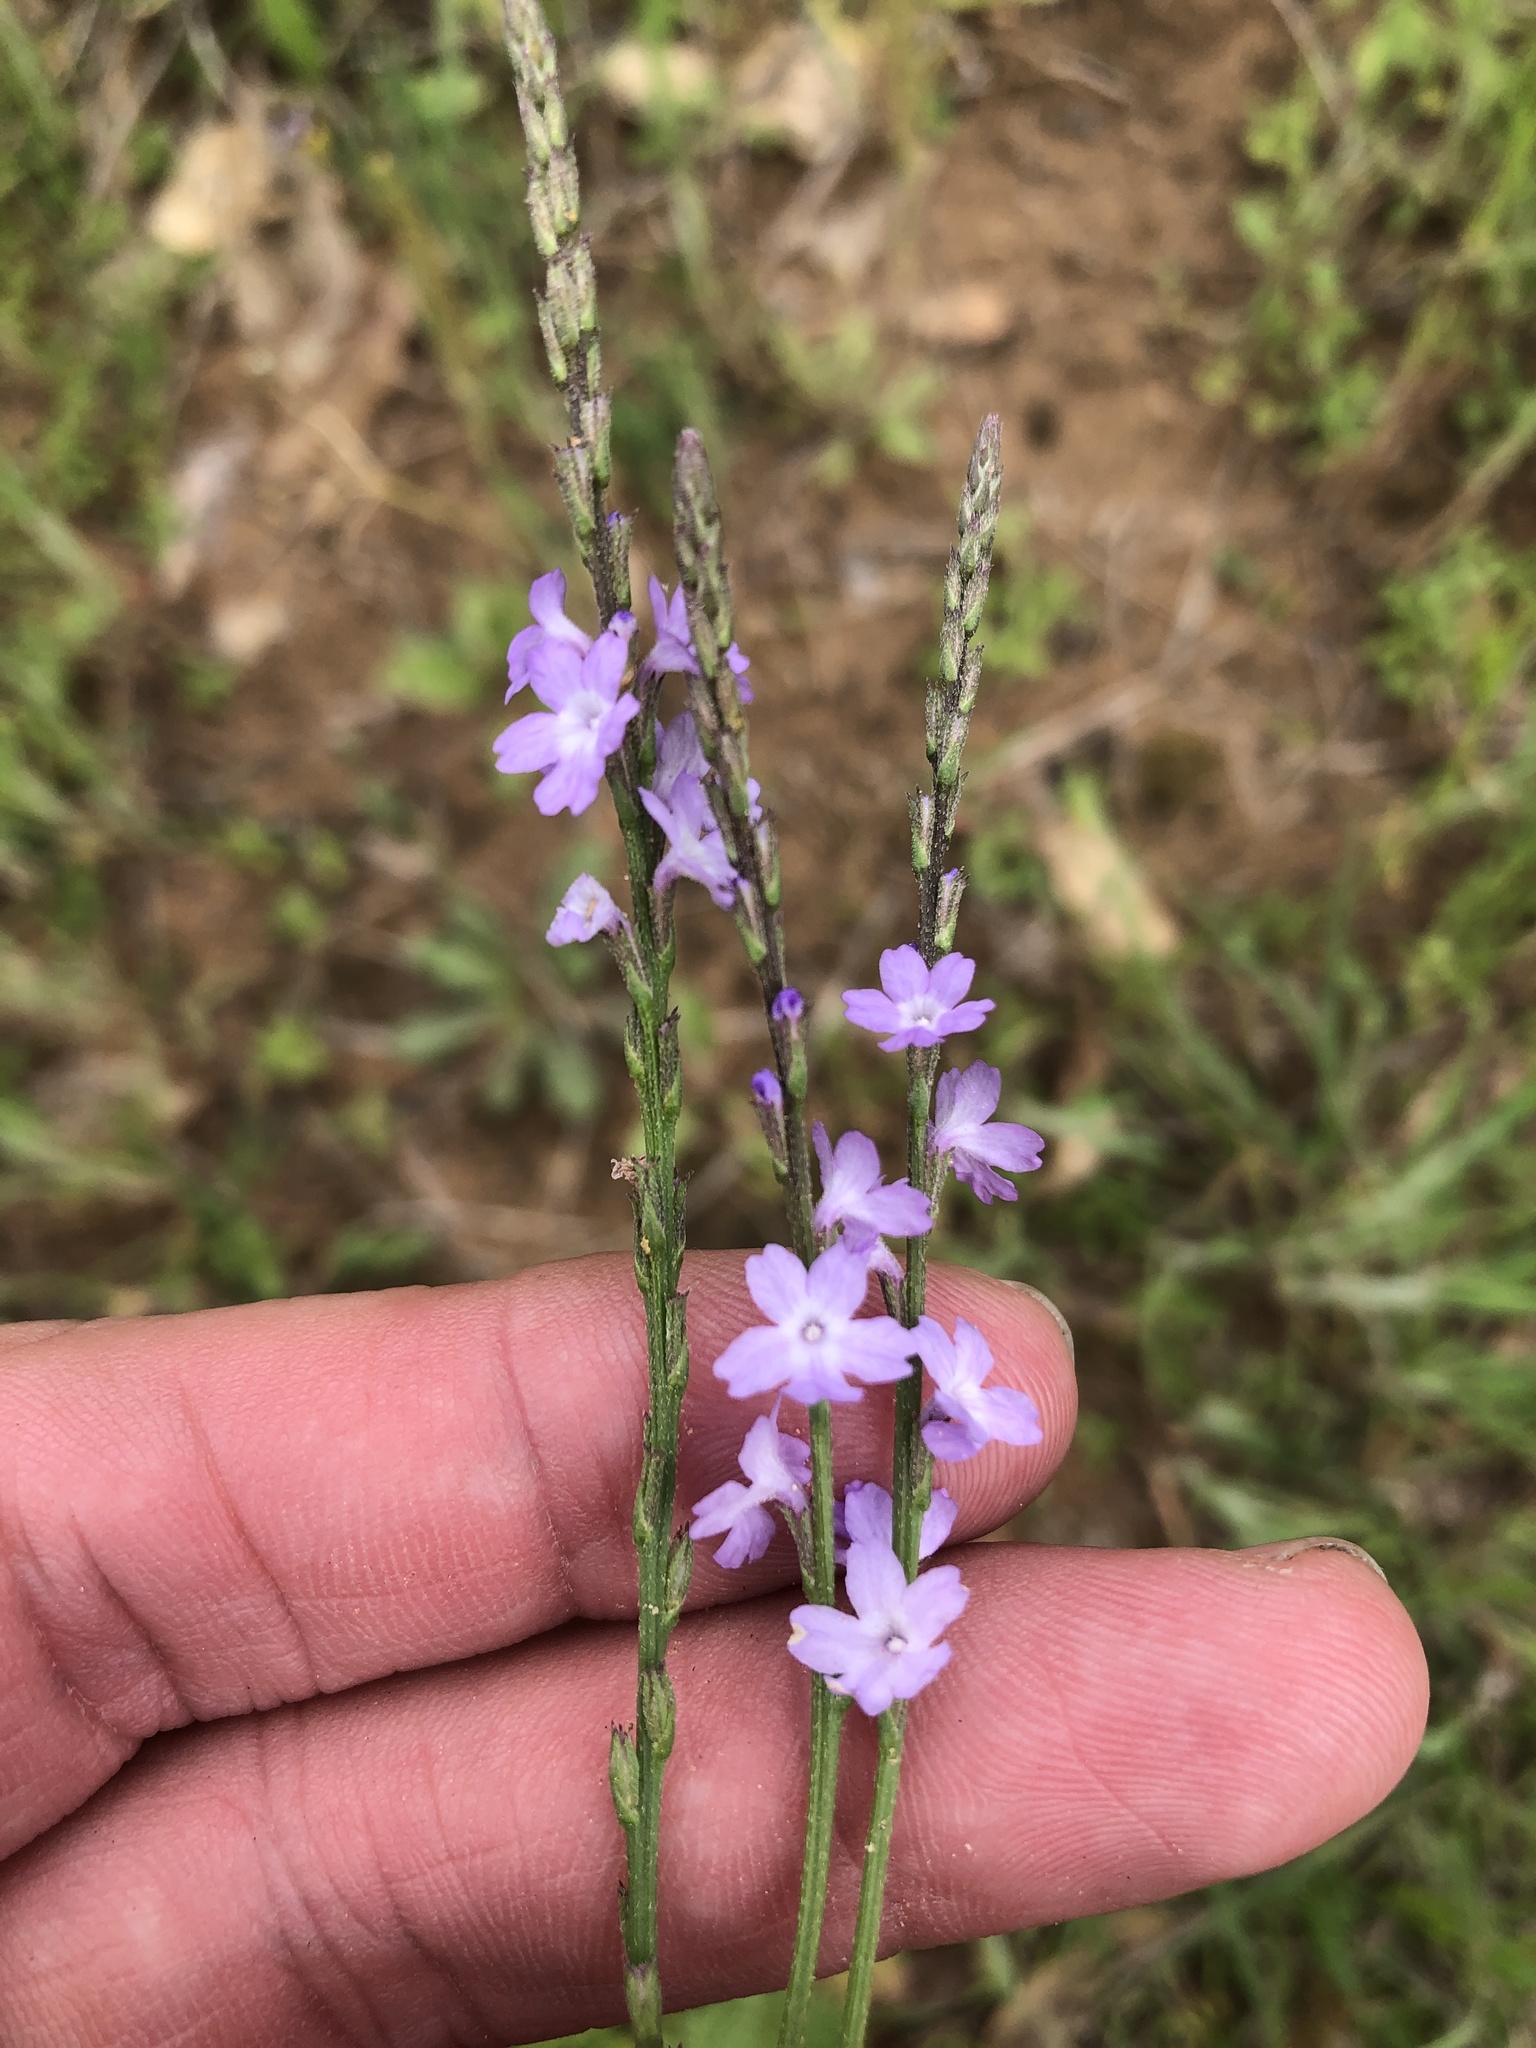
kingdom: Plantae
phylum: Tracheophyta
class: Magnoliopsida
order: Lamiales
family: Verbenaceae
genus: Verbena
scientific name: Verbena halei
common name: Texas vervain
